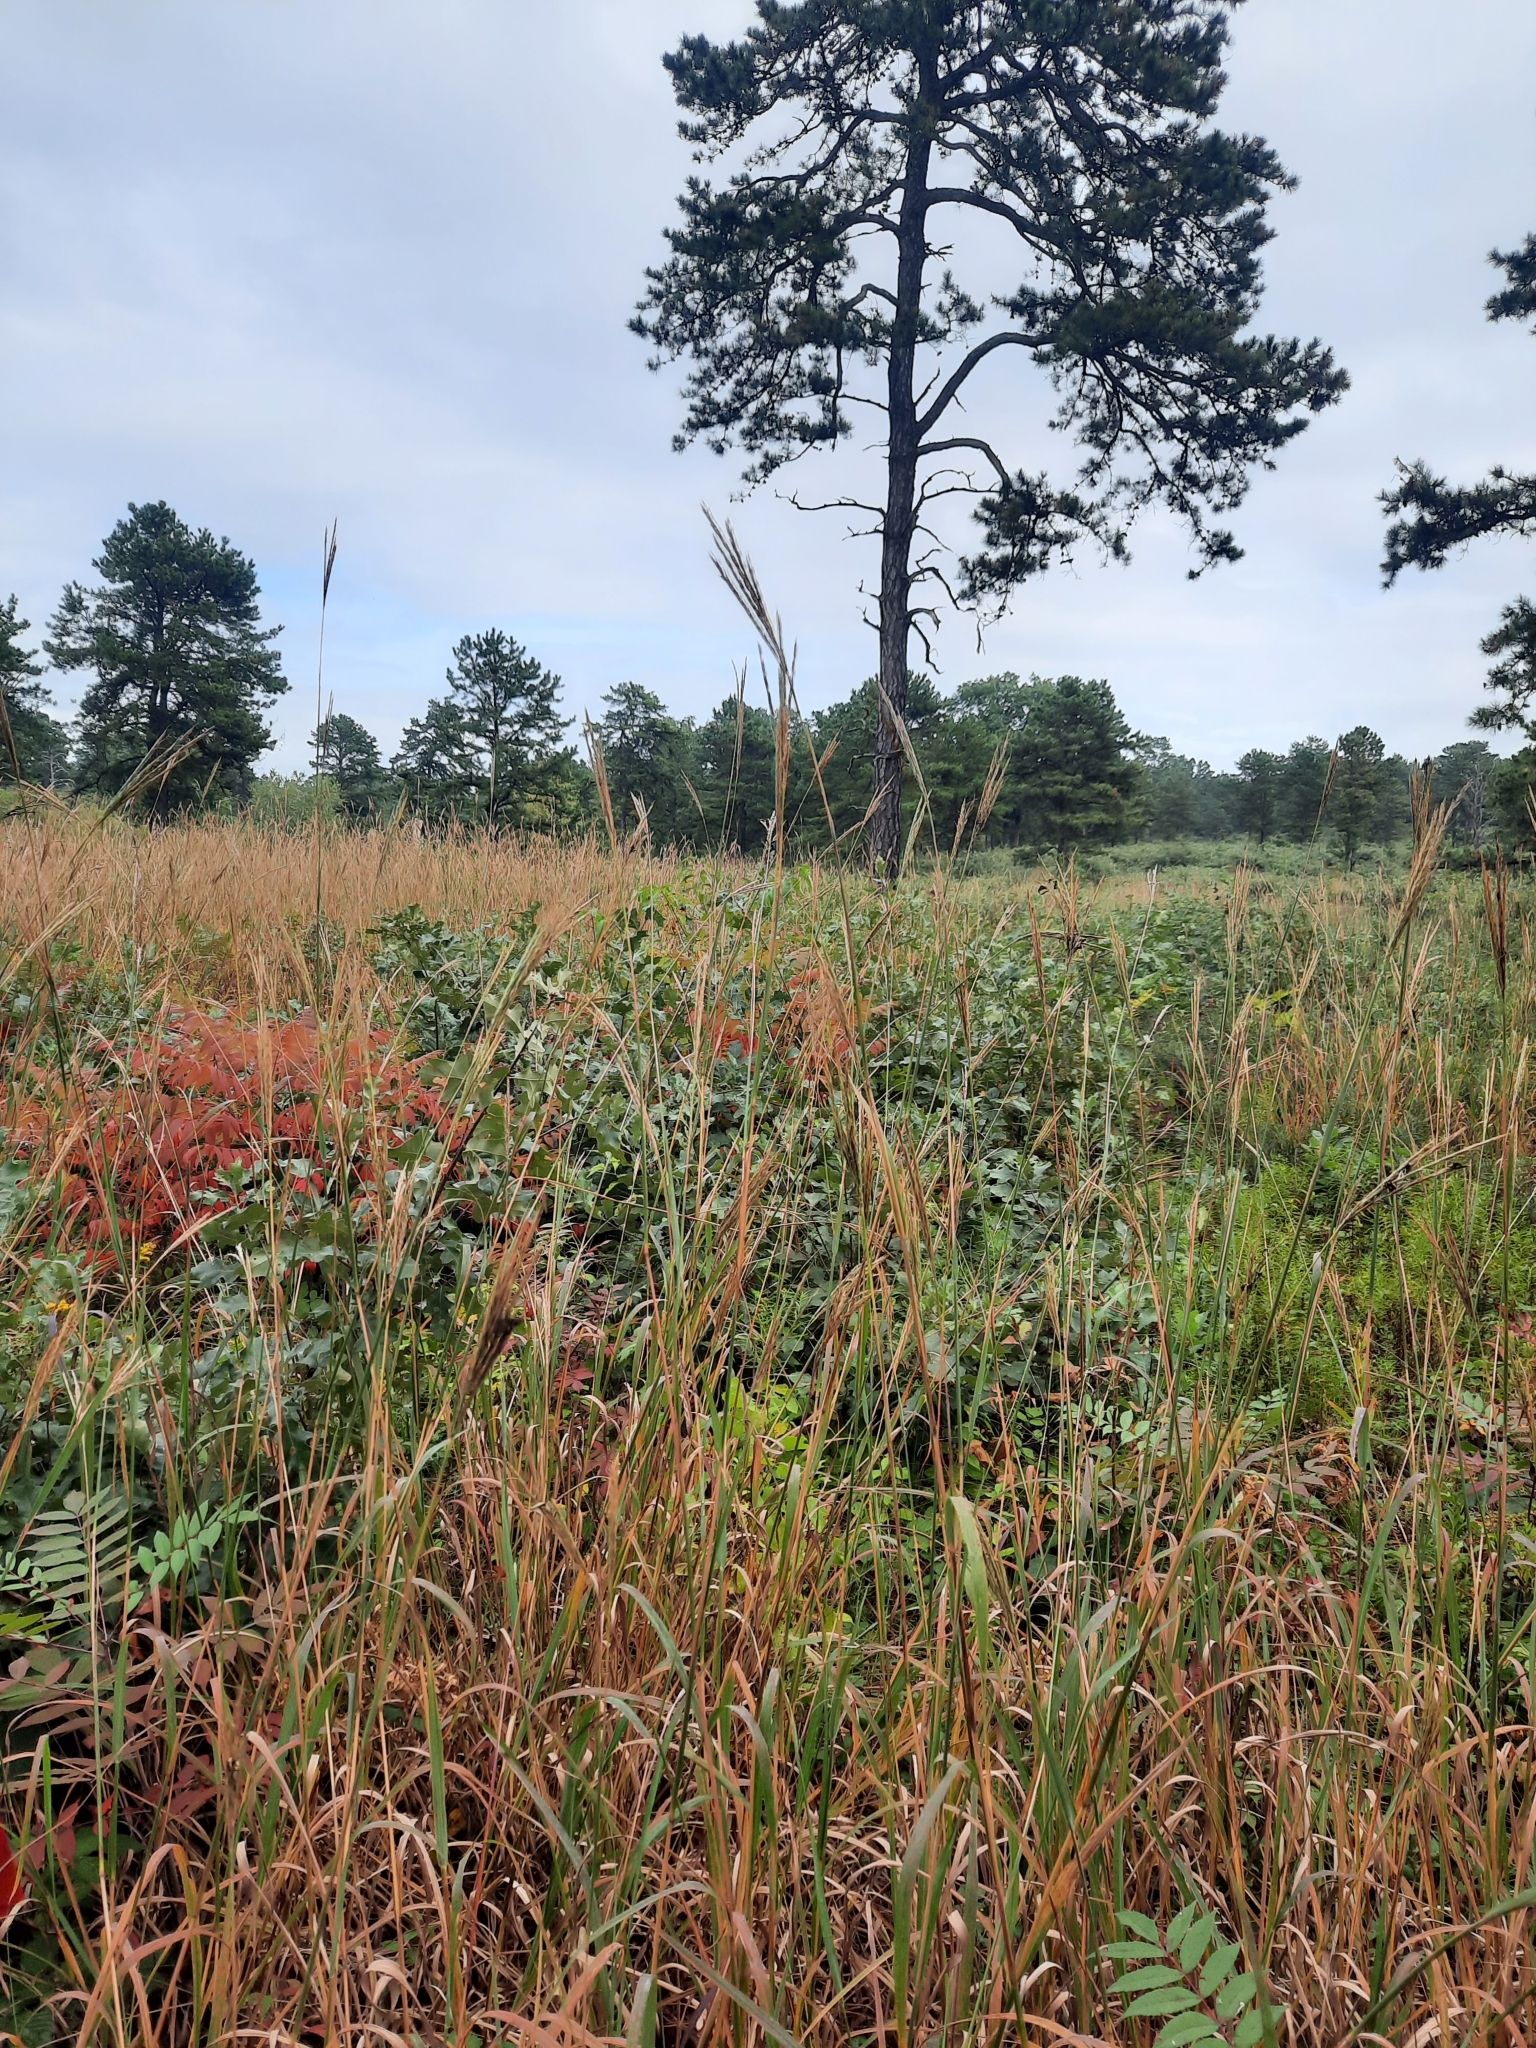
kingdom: Plantae
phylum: Tracheophyta
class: Liliopsida
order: Poales
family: Poaceae
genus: Andropogon
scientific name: Andropogon gerardi
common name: Big bluestem
